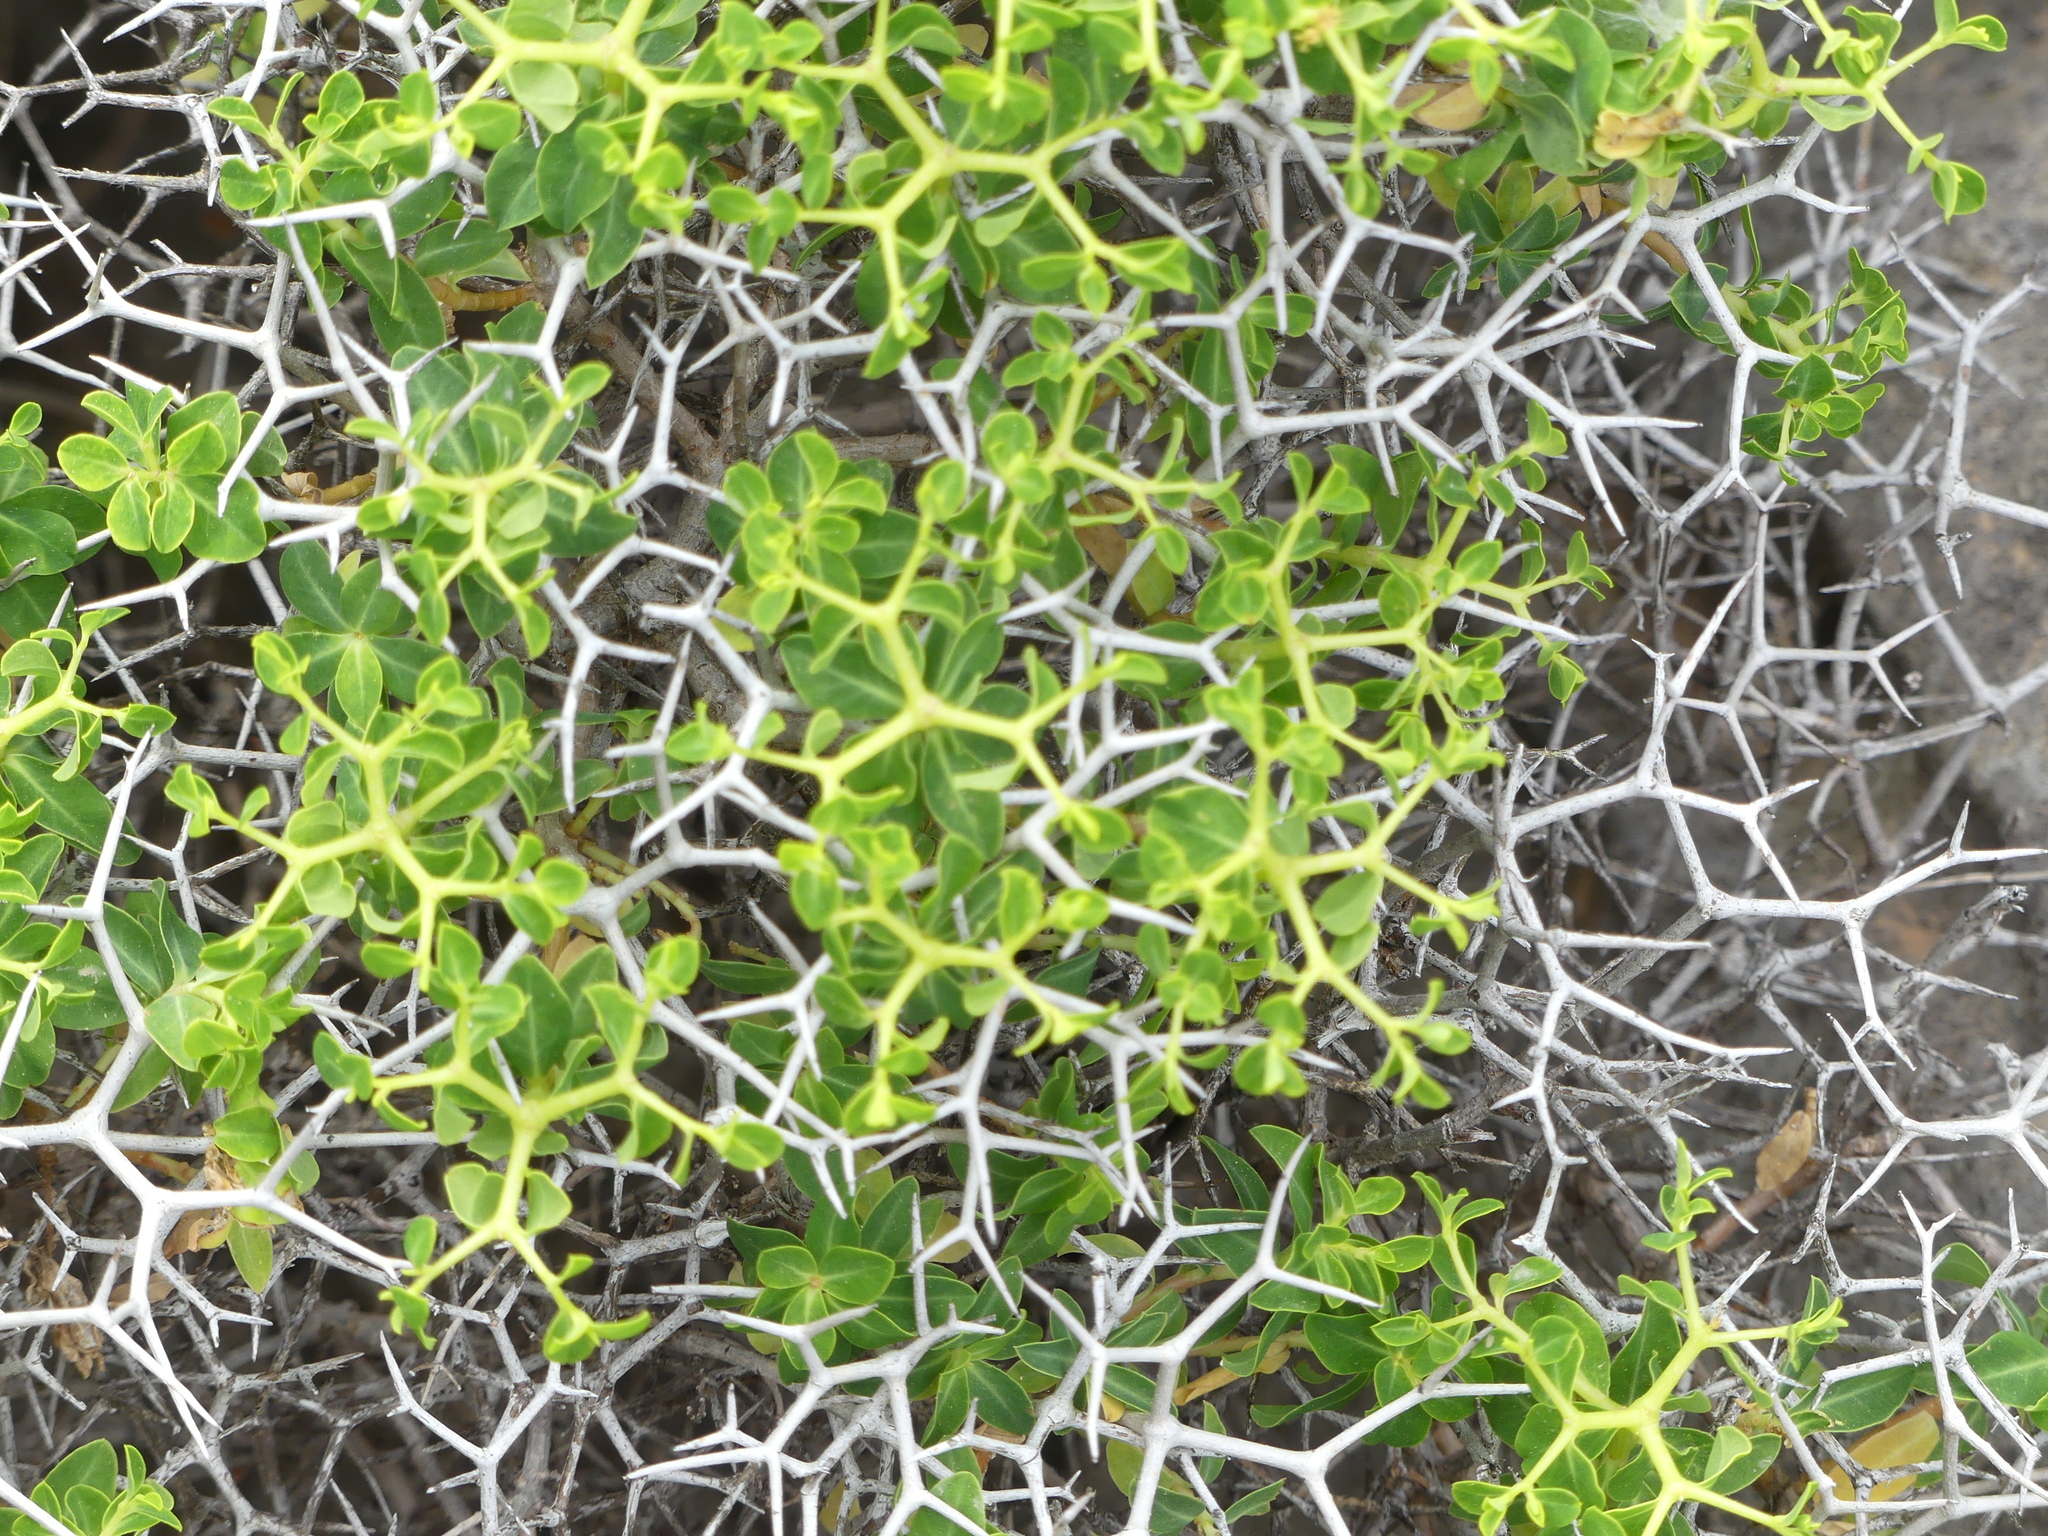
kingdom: Plantae
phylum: Tracheophyta
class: Magnoliopsida
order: Malpighiales
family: Euphorbiaceae
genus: Euphorbia
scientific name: Euphorbia acanthothamnos
